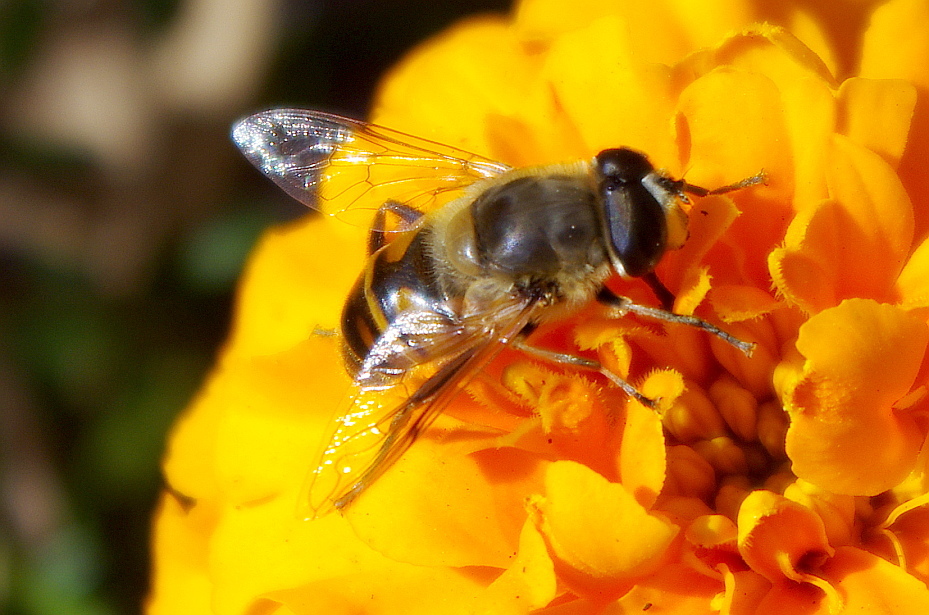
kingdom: Animalia
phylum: Arthropoda
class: Insecta
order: Diptera
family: Syrphidae
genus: Eristalis
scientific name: Eristalis tenax
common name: Drone fly
